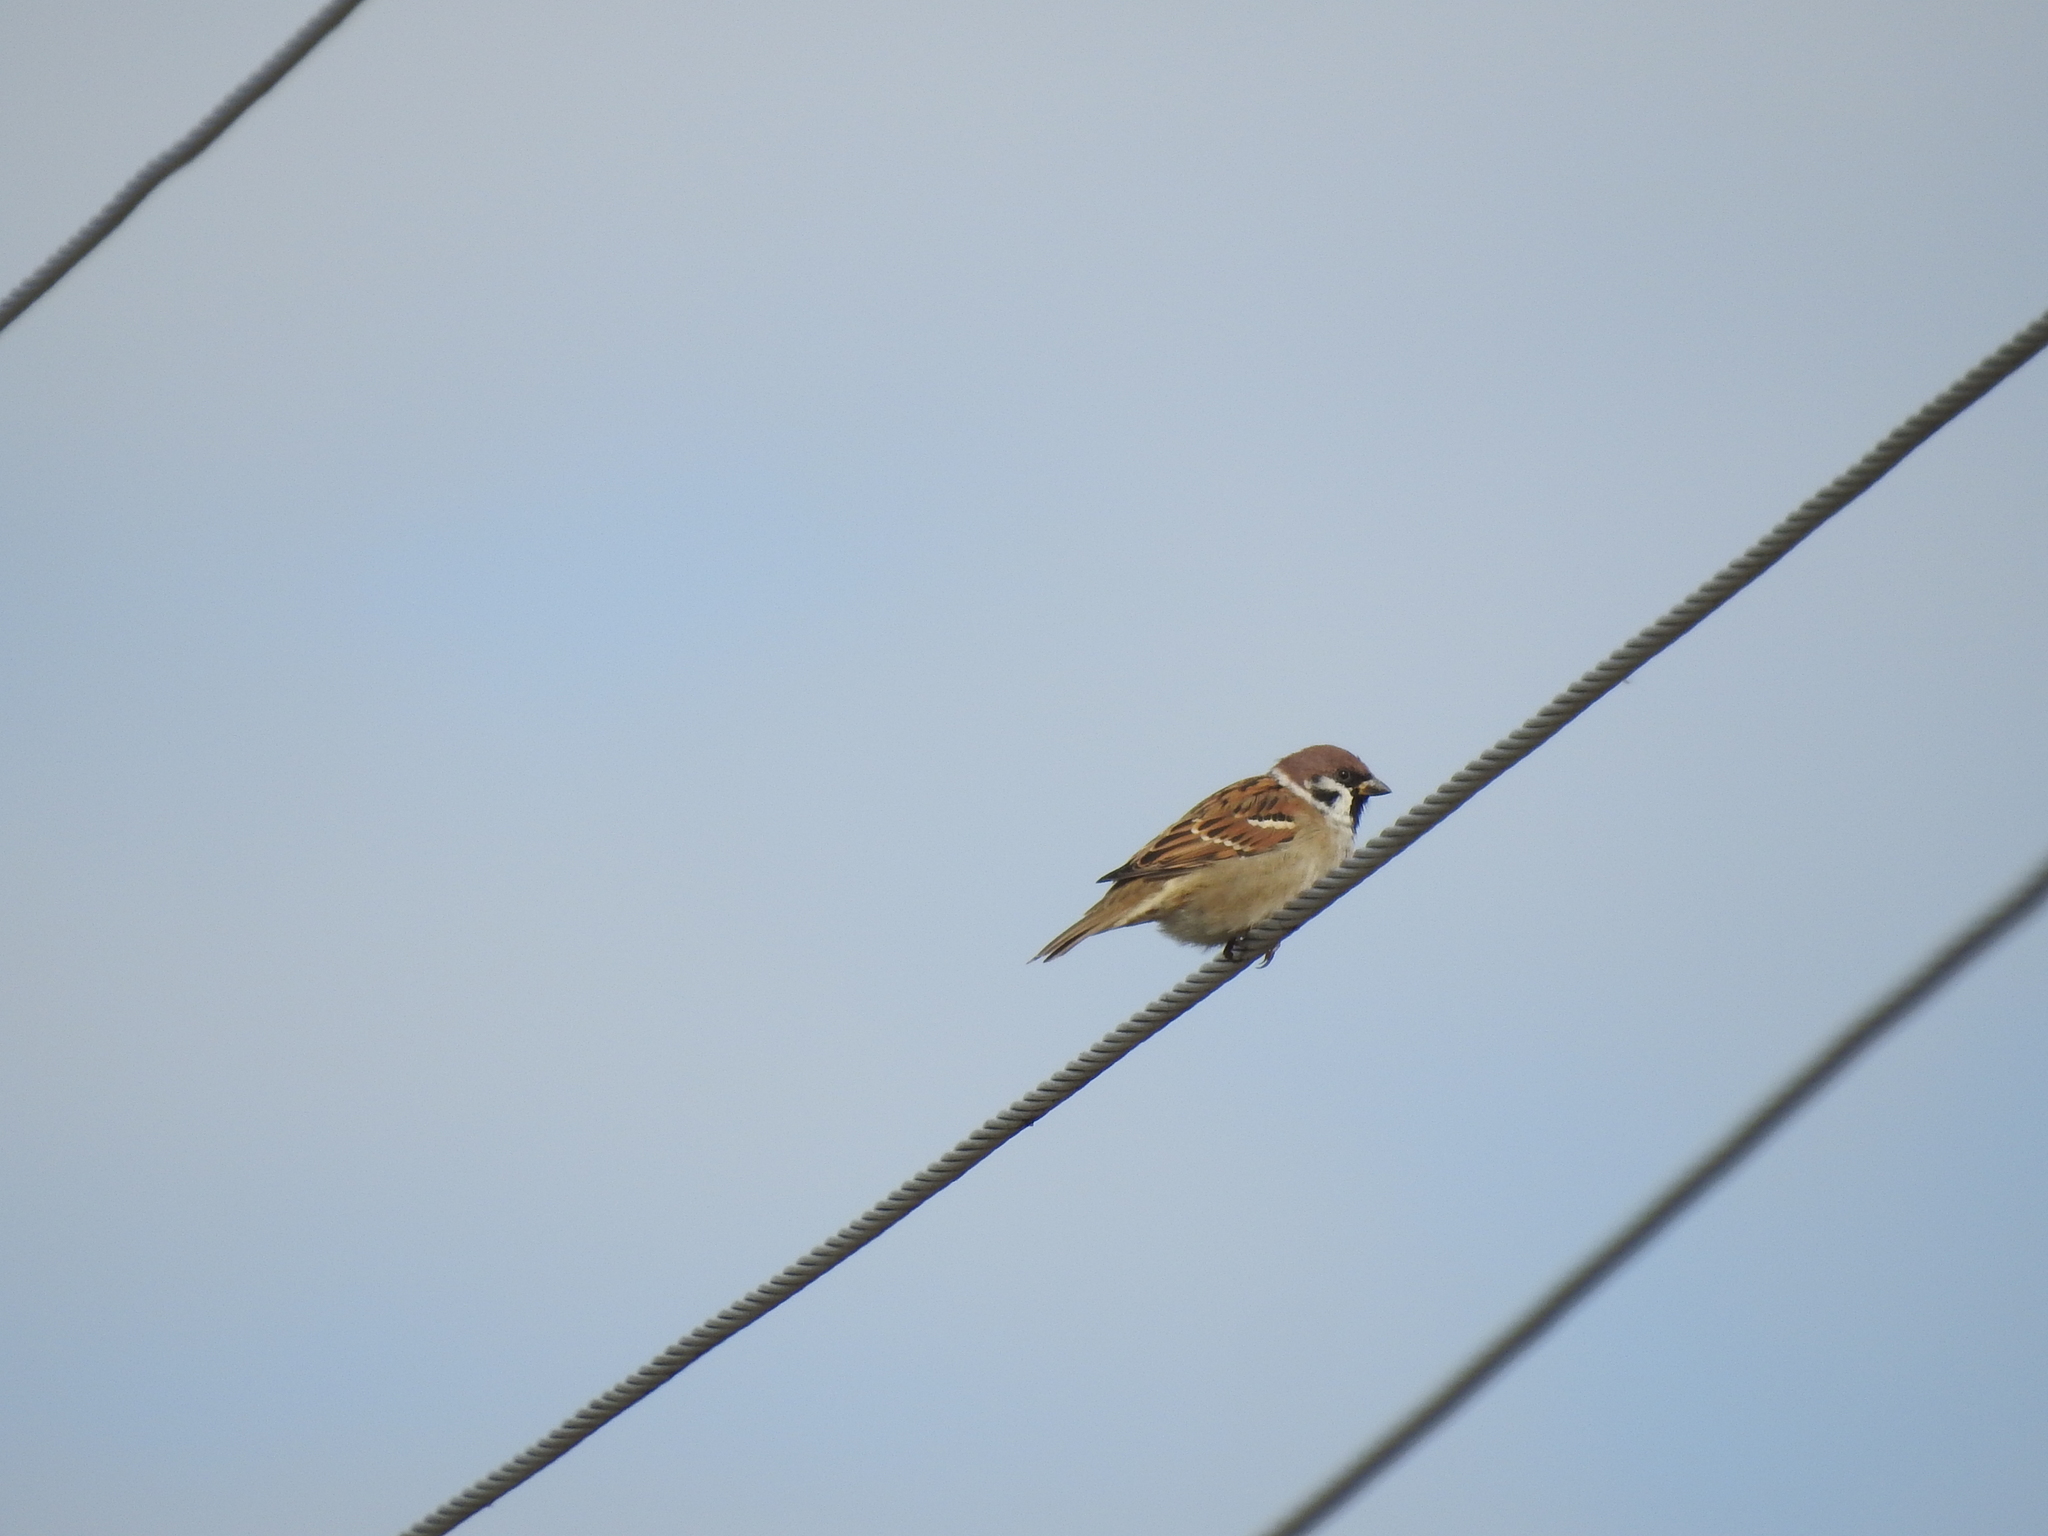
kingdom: Animalia
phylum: Chordata
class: Aves
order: Passeriformes
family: Passeridae
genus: Passer
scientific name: Passer montanus
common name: Eurasian tree sparrow
